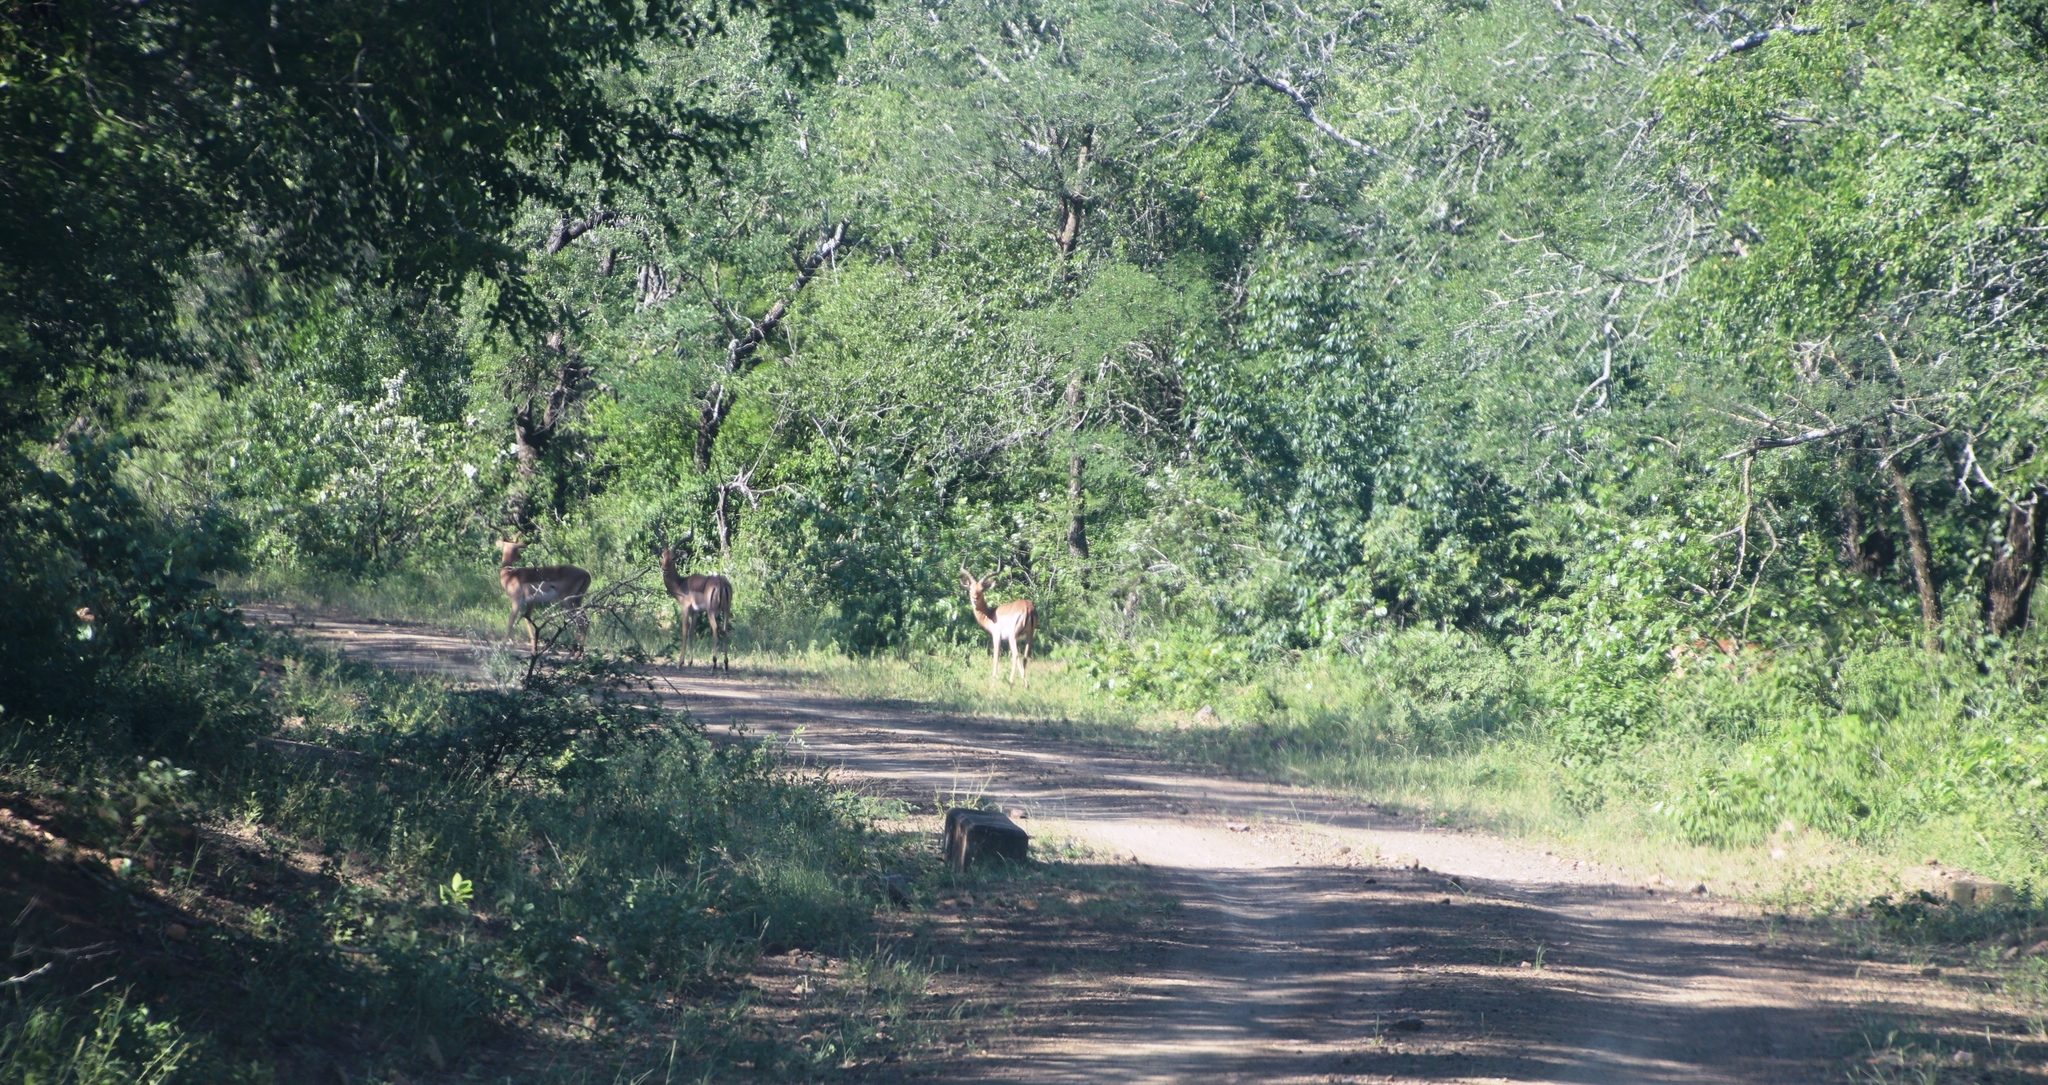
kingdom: Animalia
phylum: Chordata
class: Mammalia
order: Artiodactyla
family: Bovidae
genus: Aepyceros
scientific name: Aepyceros melampus
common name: Impala
